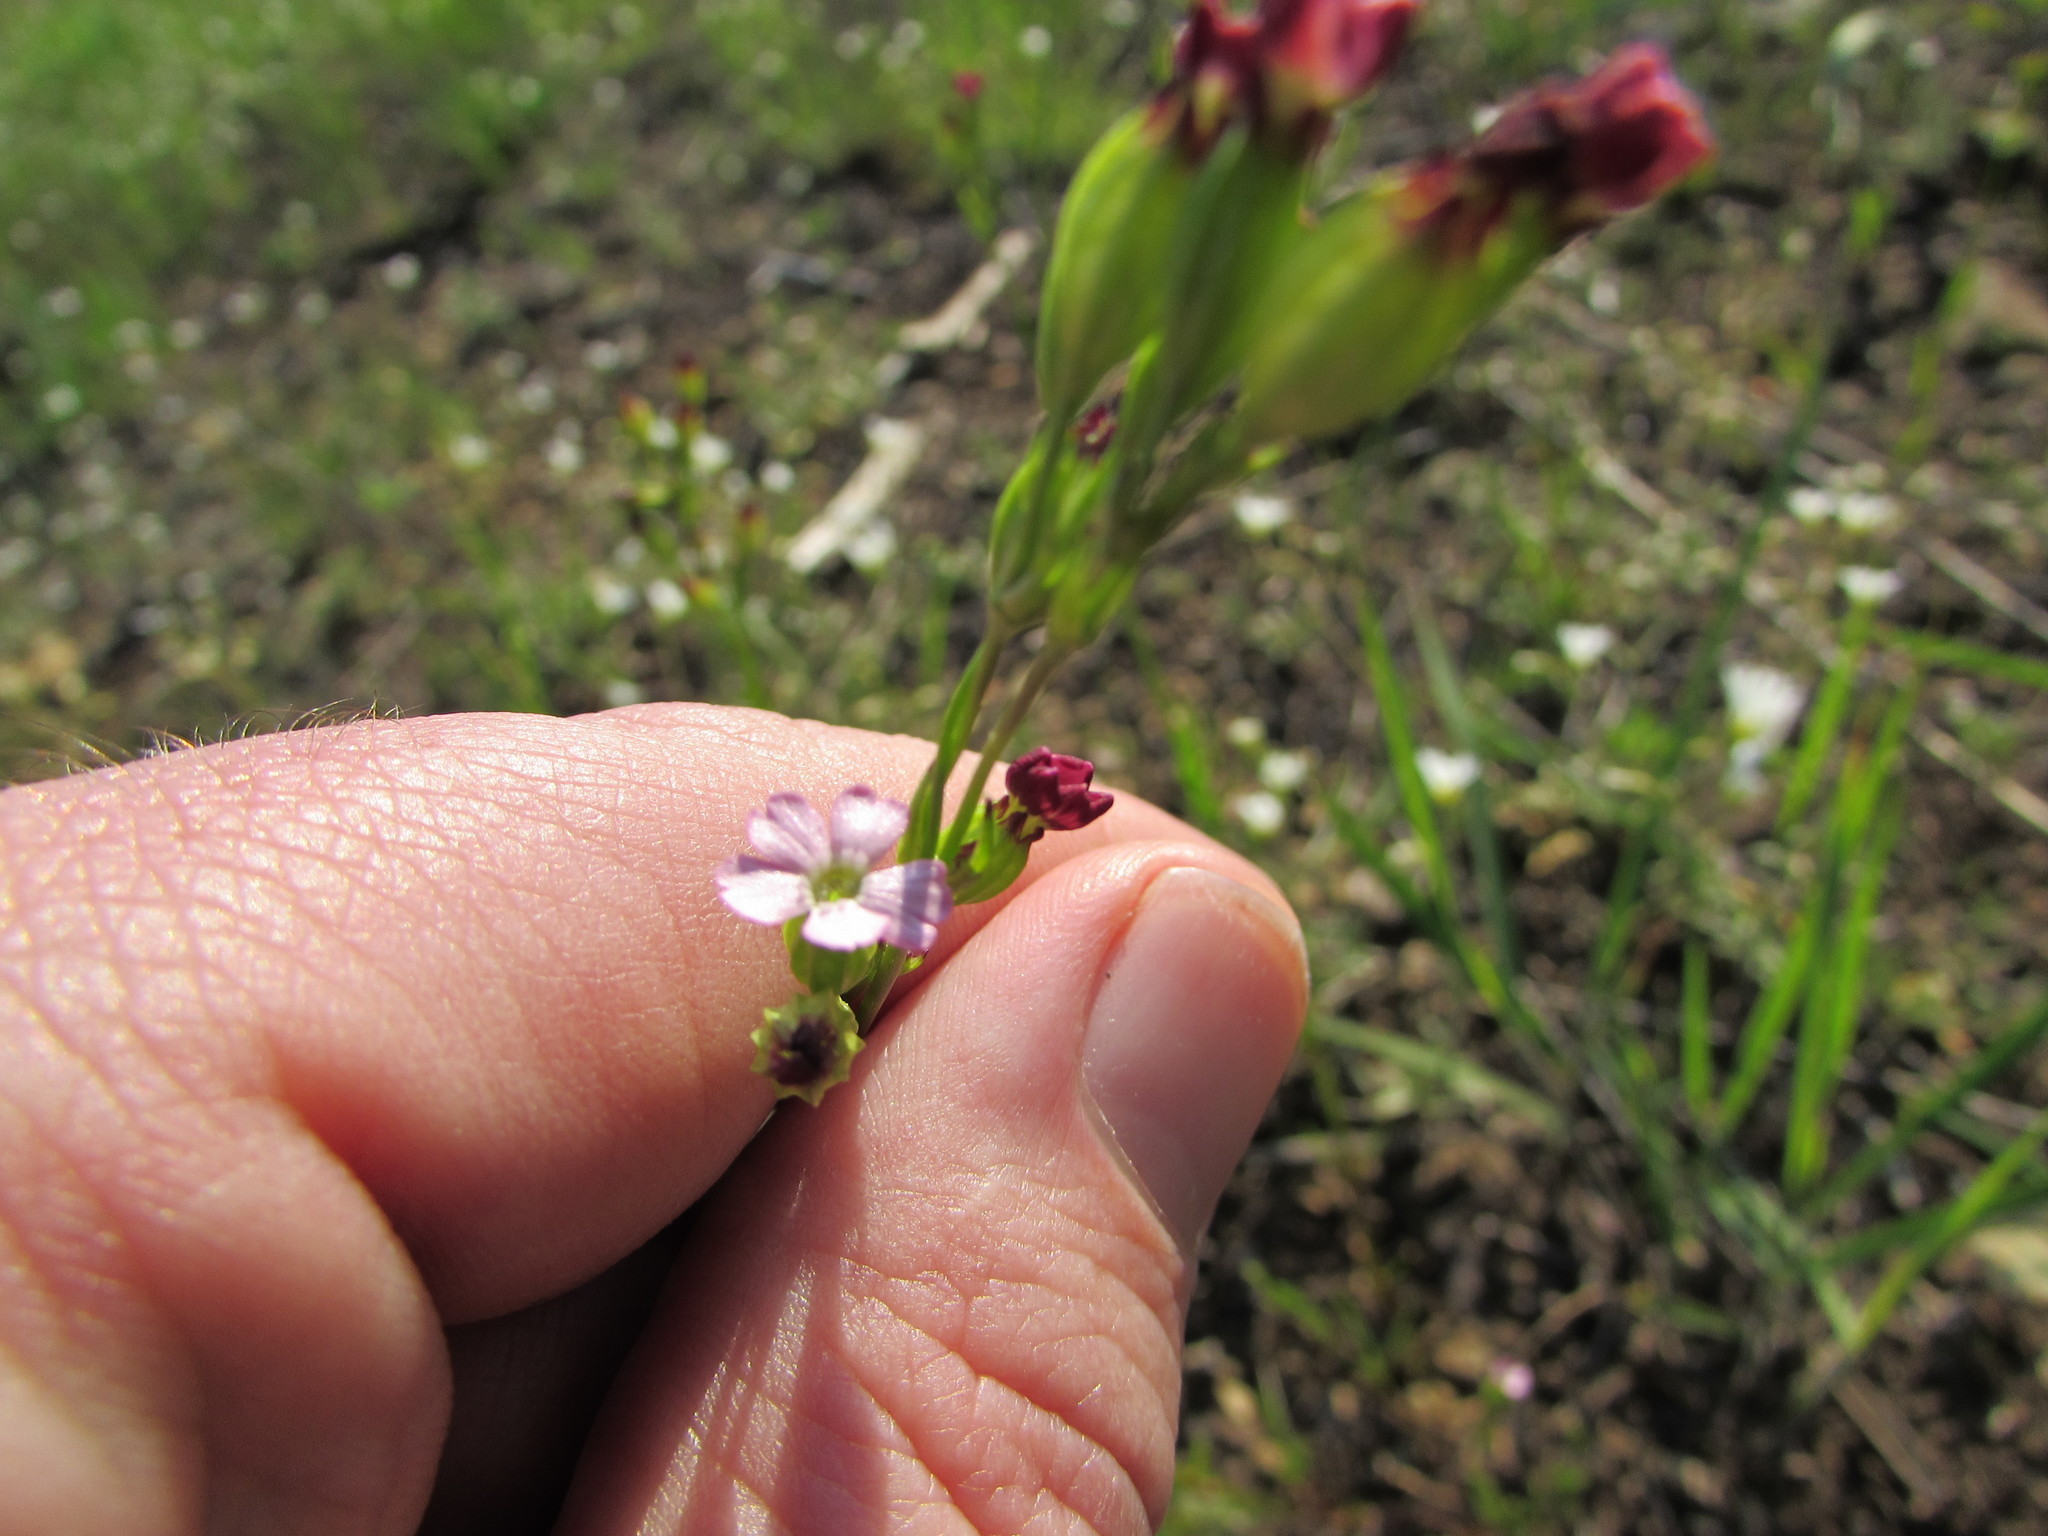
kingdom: Plantae
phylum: Tracheophyta
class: Magnoliopsida
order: Caryophyllales
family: Caryophyllaceae
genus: Silene
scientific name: Silene antirrhina
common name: Sleepy catchfly
